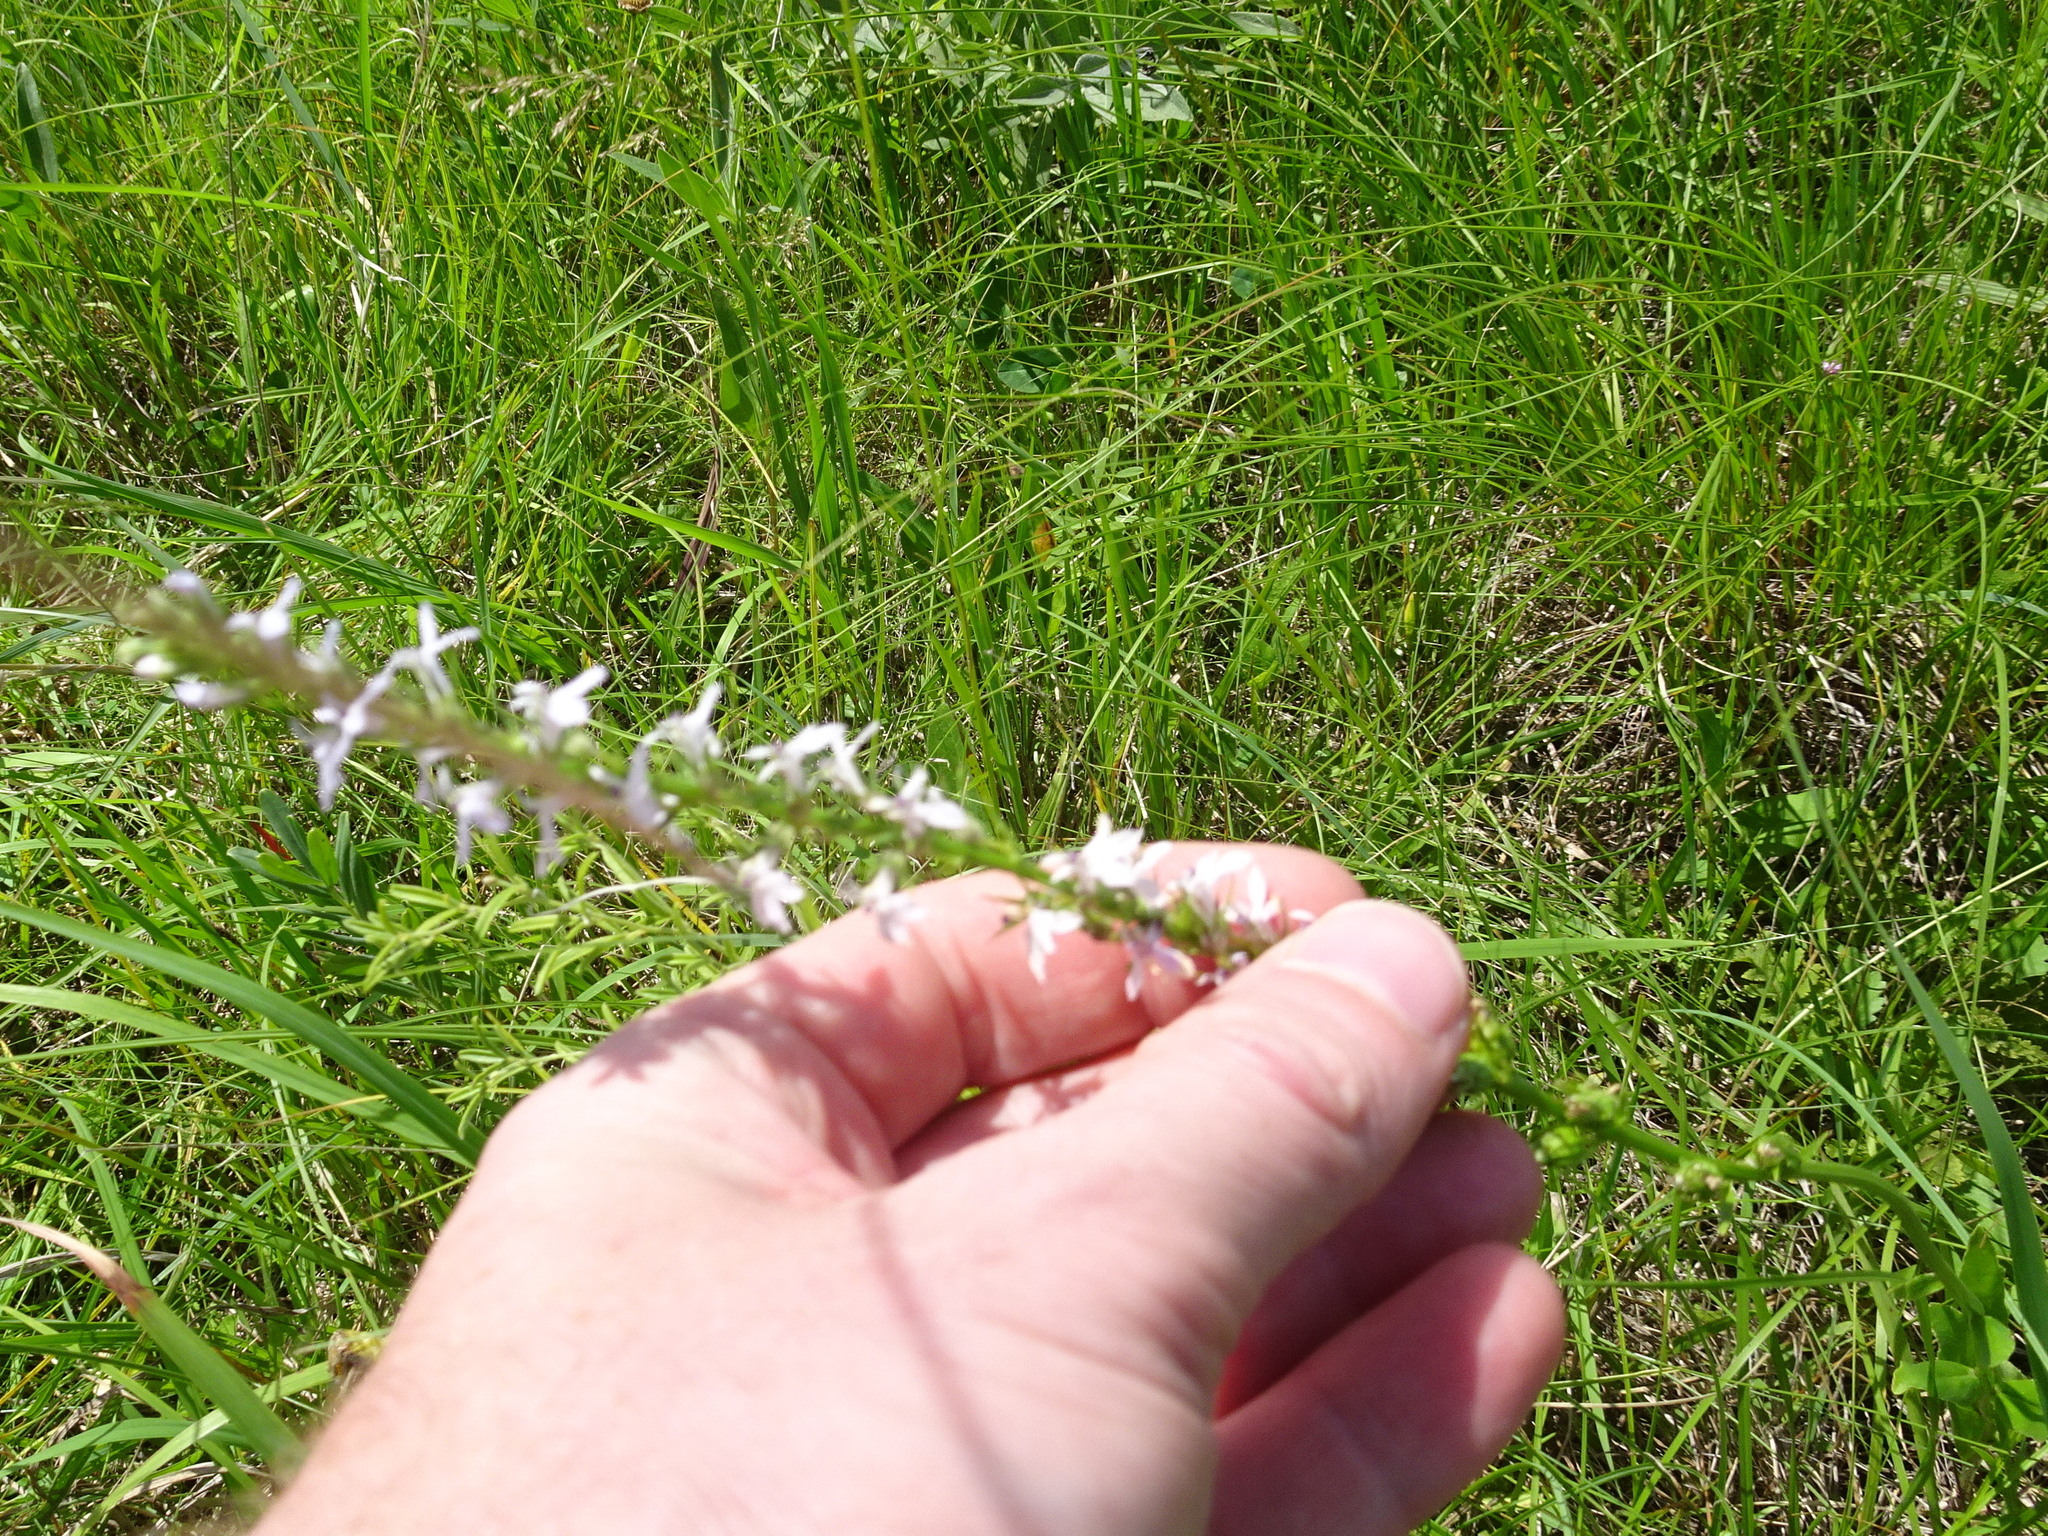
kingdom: Plantae
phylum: Tracheophyta
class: Magnoliopsida
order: Asterales
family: Campanulaceae
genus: Lobelia
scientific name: Lobelia spicata
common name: Pale-spike lobelia
